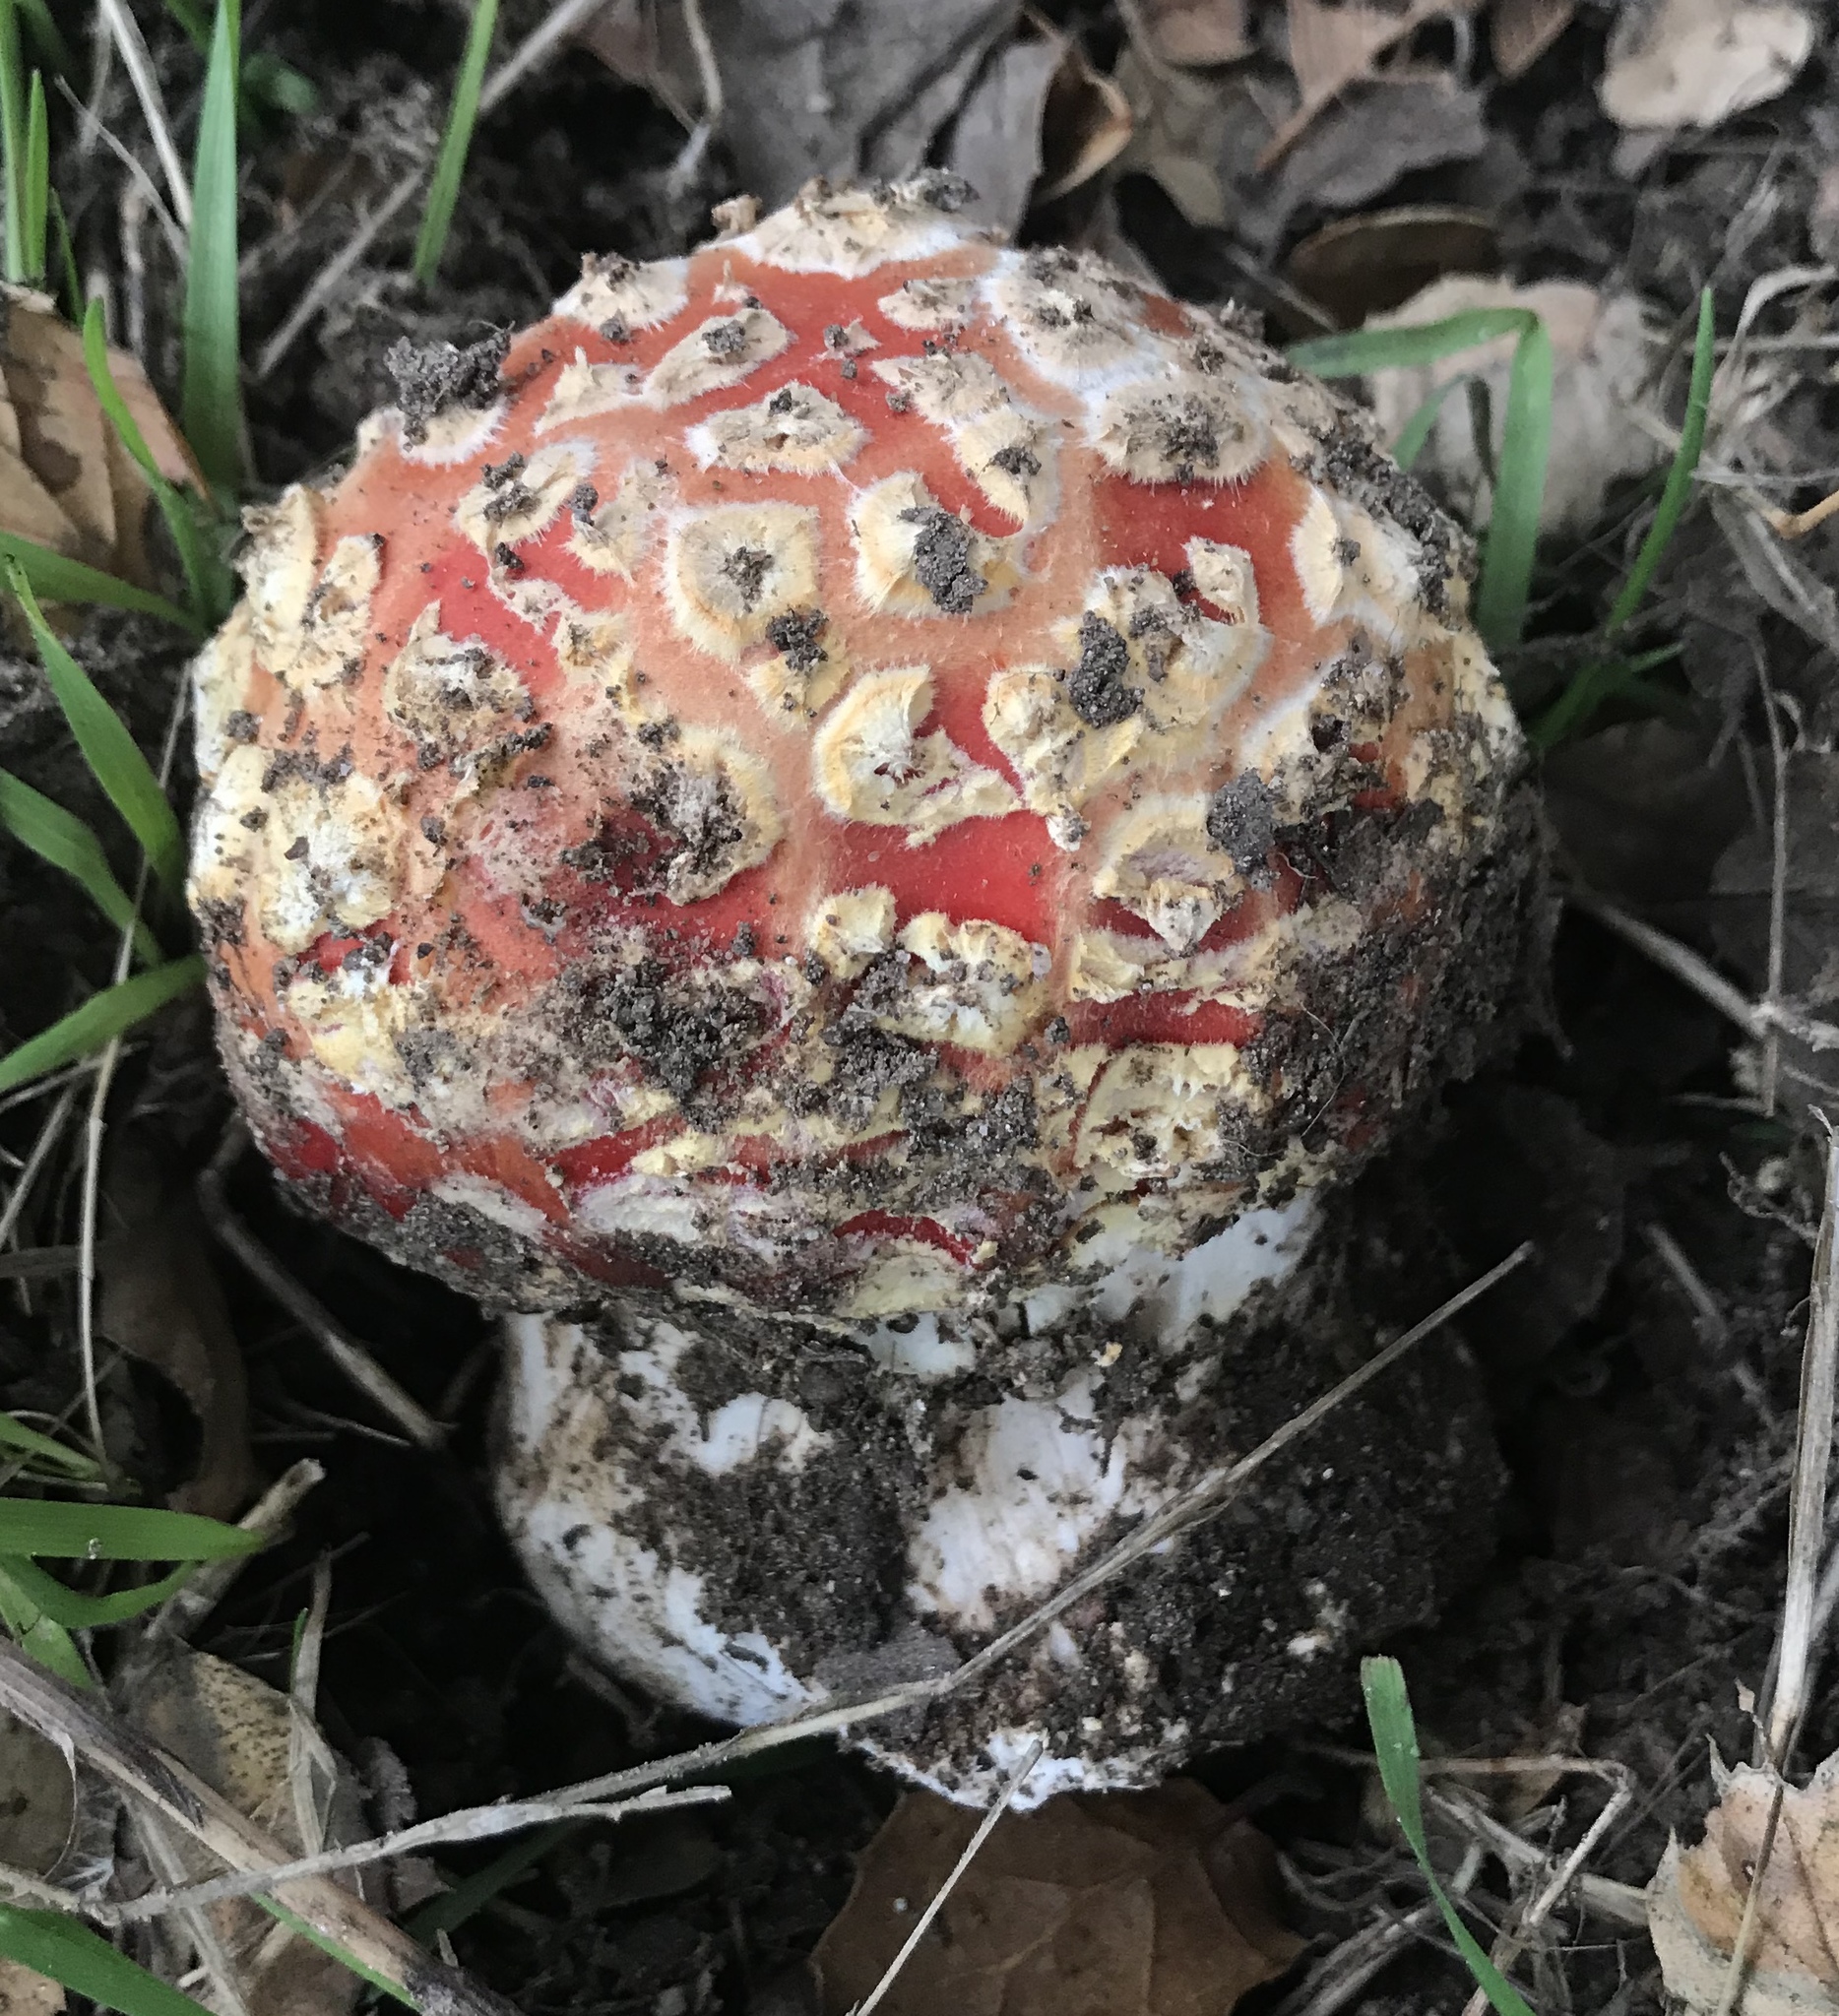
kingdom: Fungi
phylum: Basidiomycota
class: Agaricomycetes
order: Agaricales
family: Amanitaceae
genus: Amanita
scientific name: Amanita muscaria
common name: Fly agaric
